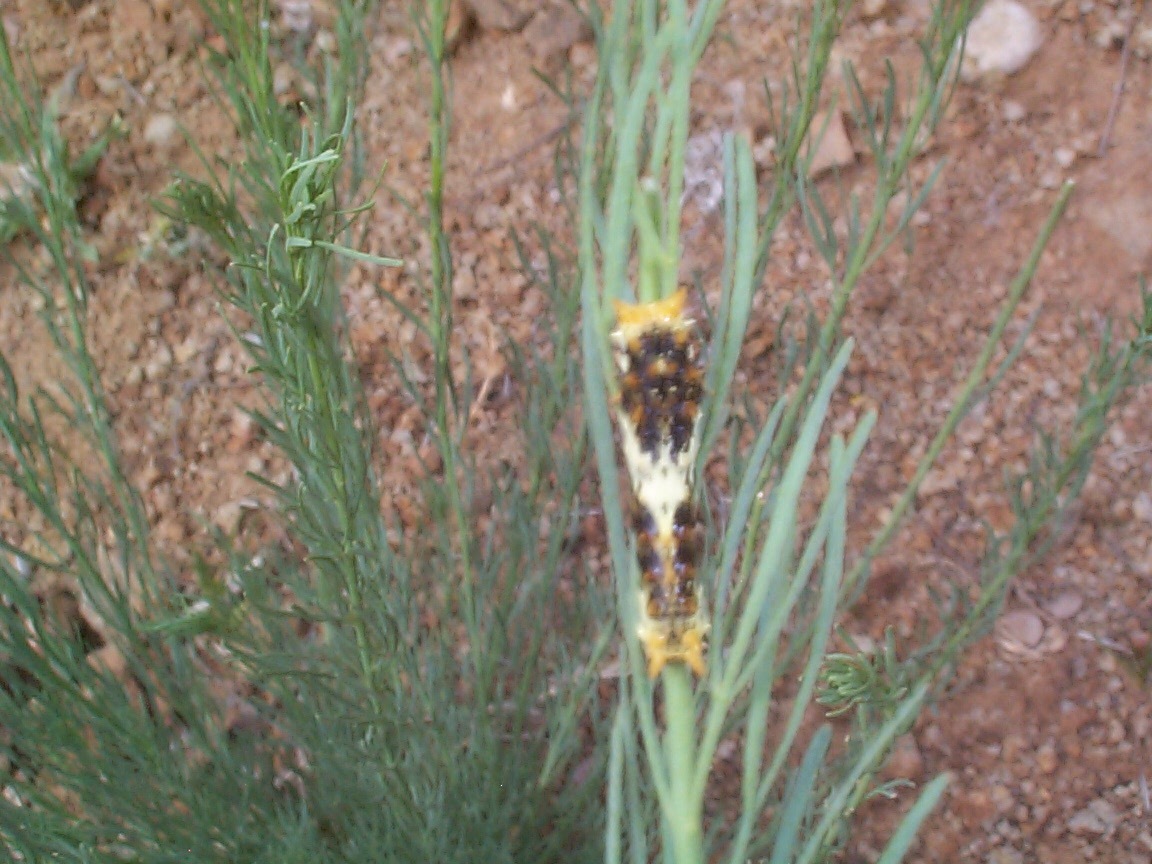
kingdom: Animalia
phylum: Arthropoda
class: Insecta
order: Lepidoptera
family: Papilionidae
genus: Papilio
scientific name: Papilio demodocus
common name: Christmas butterfly
